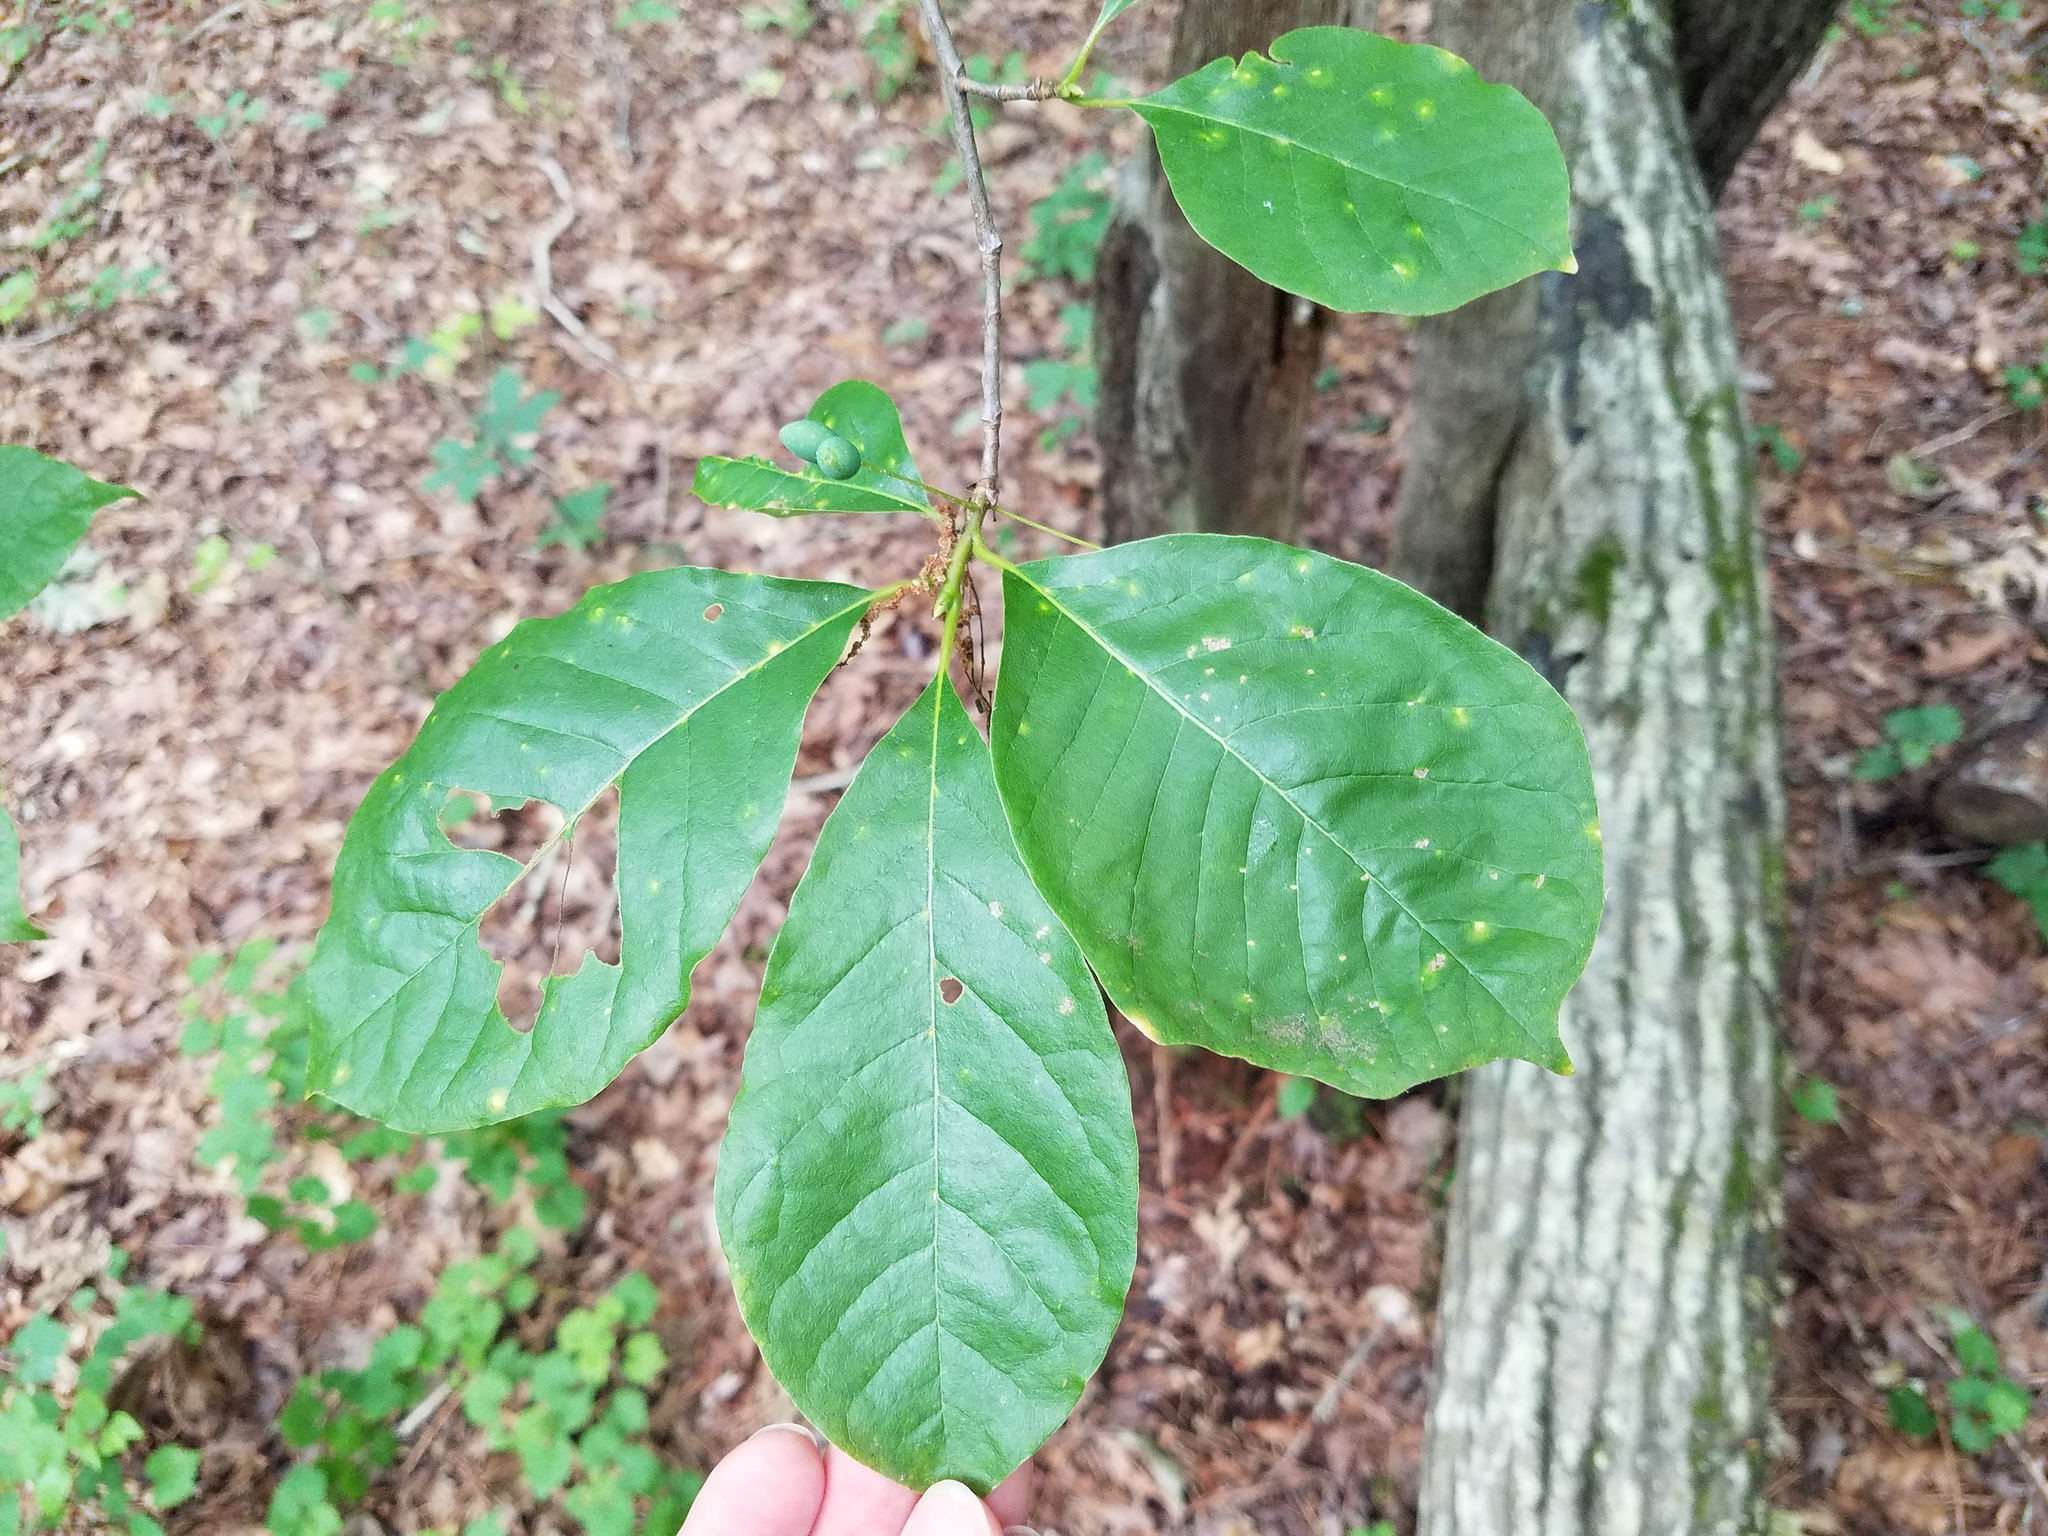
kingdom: Plantae
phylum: Tracheophyta
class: Magnoliopsida
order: Cornales
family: Nyssaceae
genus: Nyssa
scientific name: Nyssa sylvatica
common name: Black tupelo
